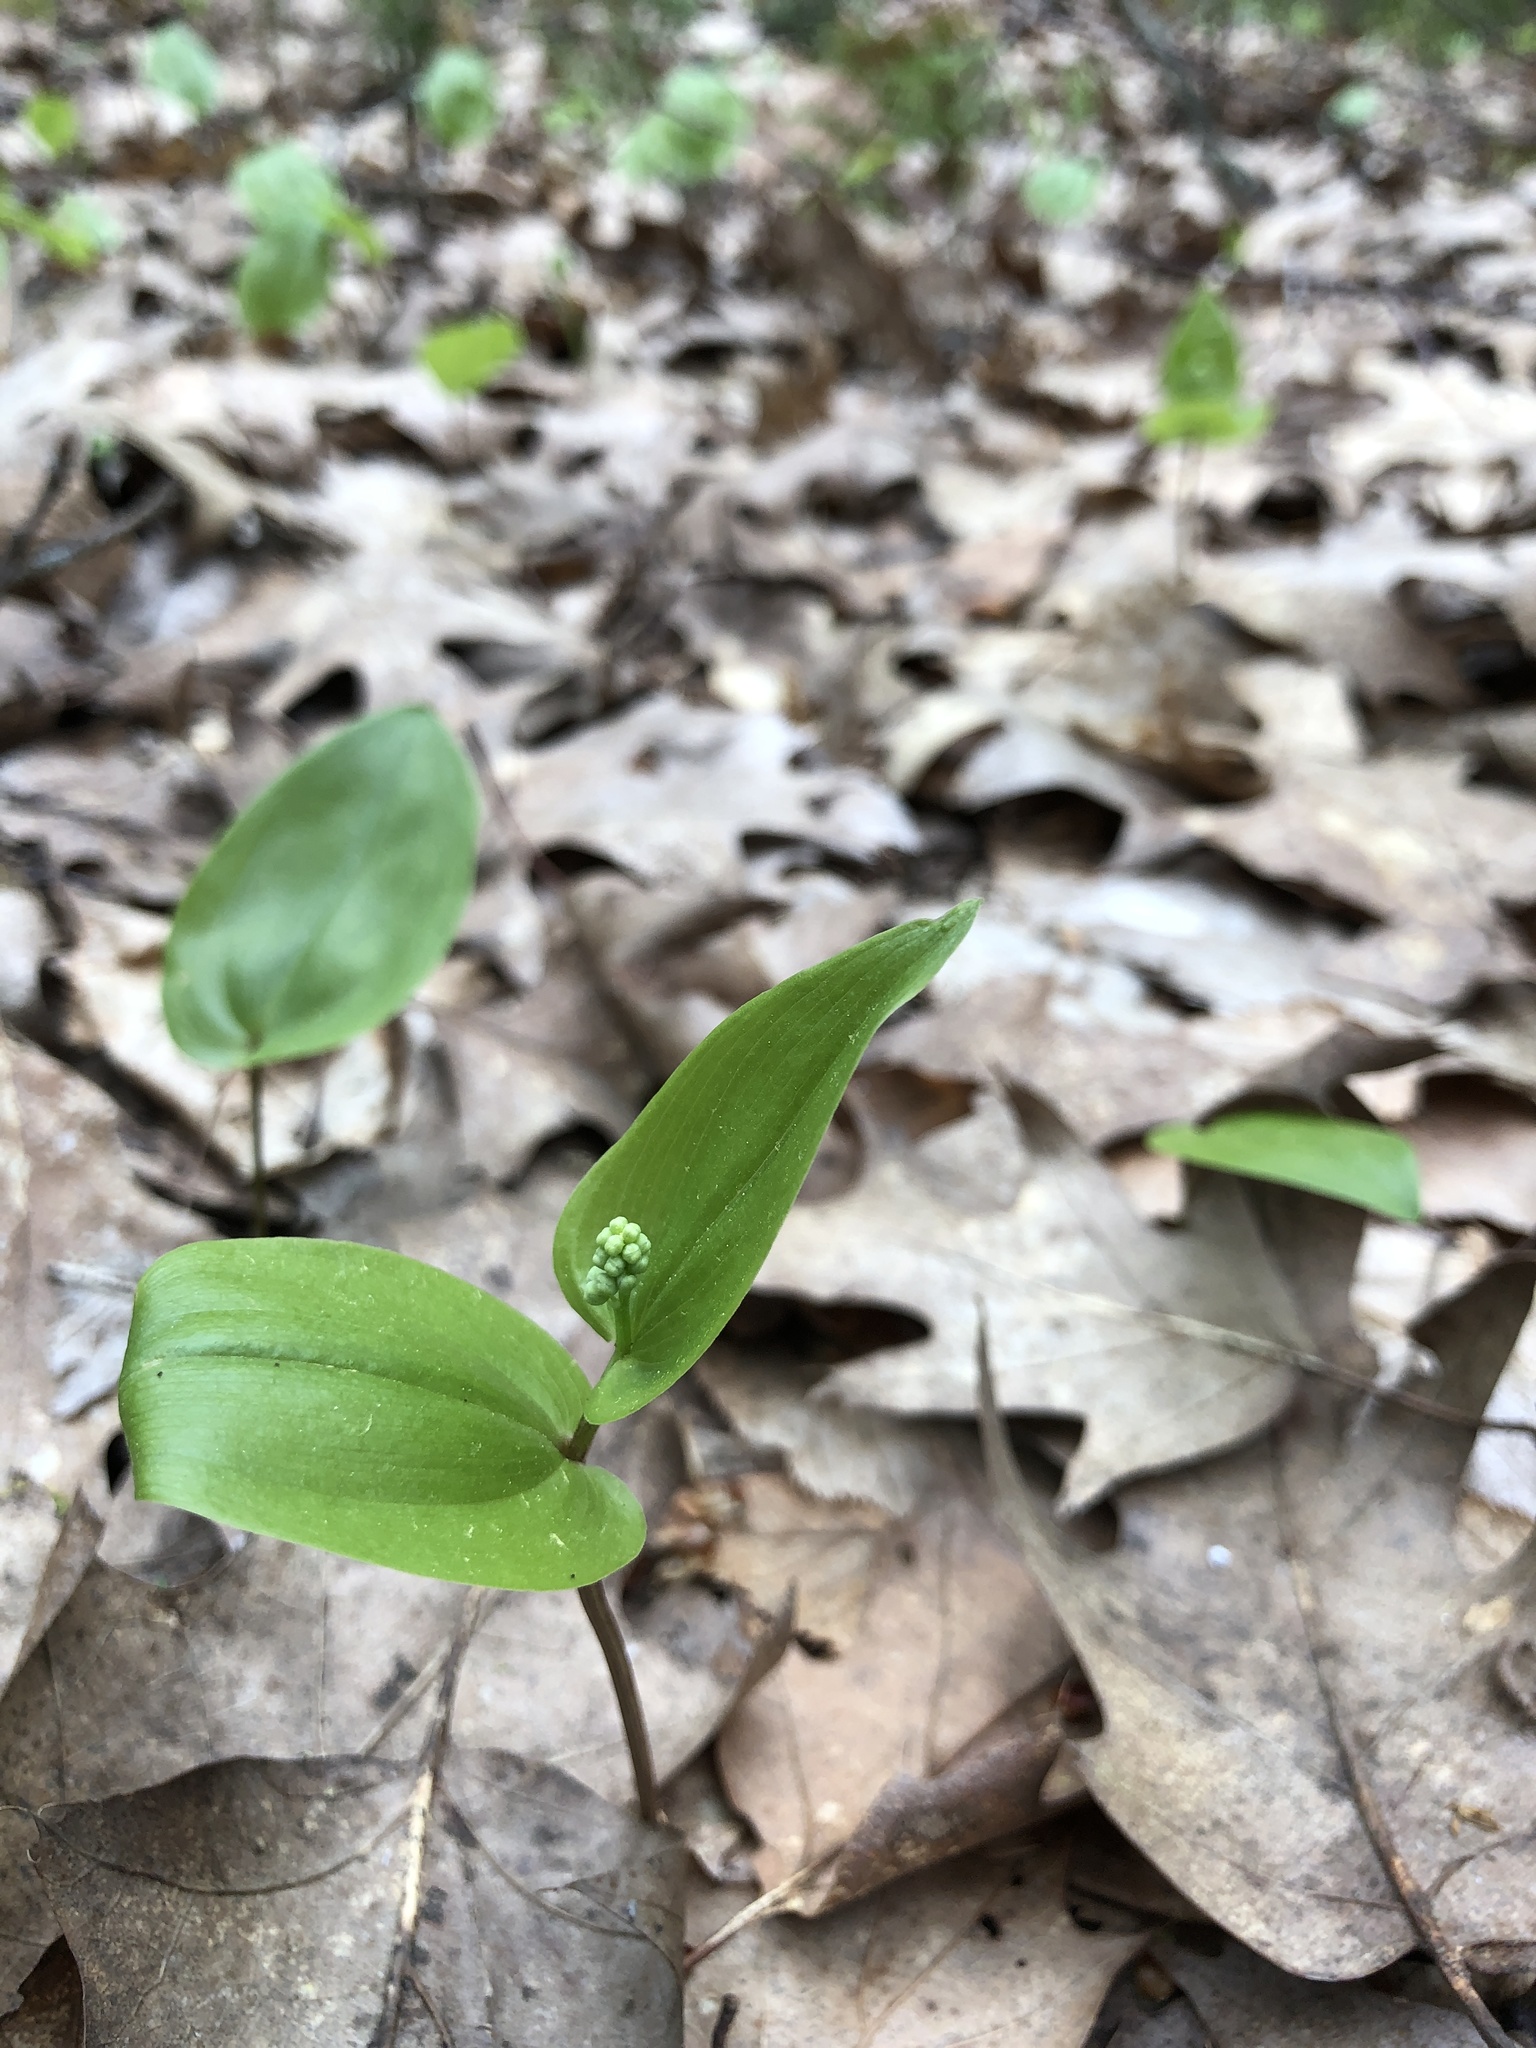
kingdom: Plantae
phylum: Tracheophyta
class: Liliopsida
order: Asparagales
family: Asparagaceae
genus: Maianthemum
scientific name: Maianthemum canadense
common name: False lily-of-the-valley
